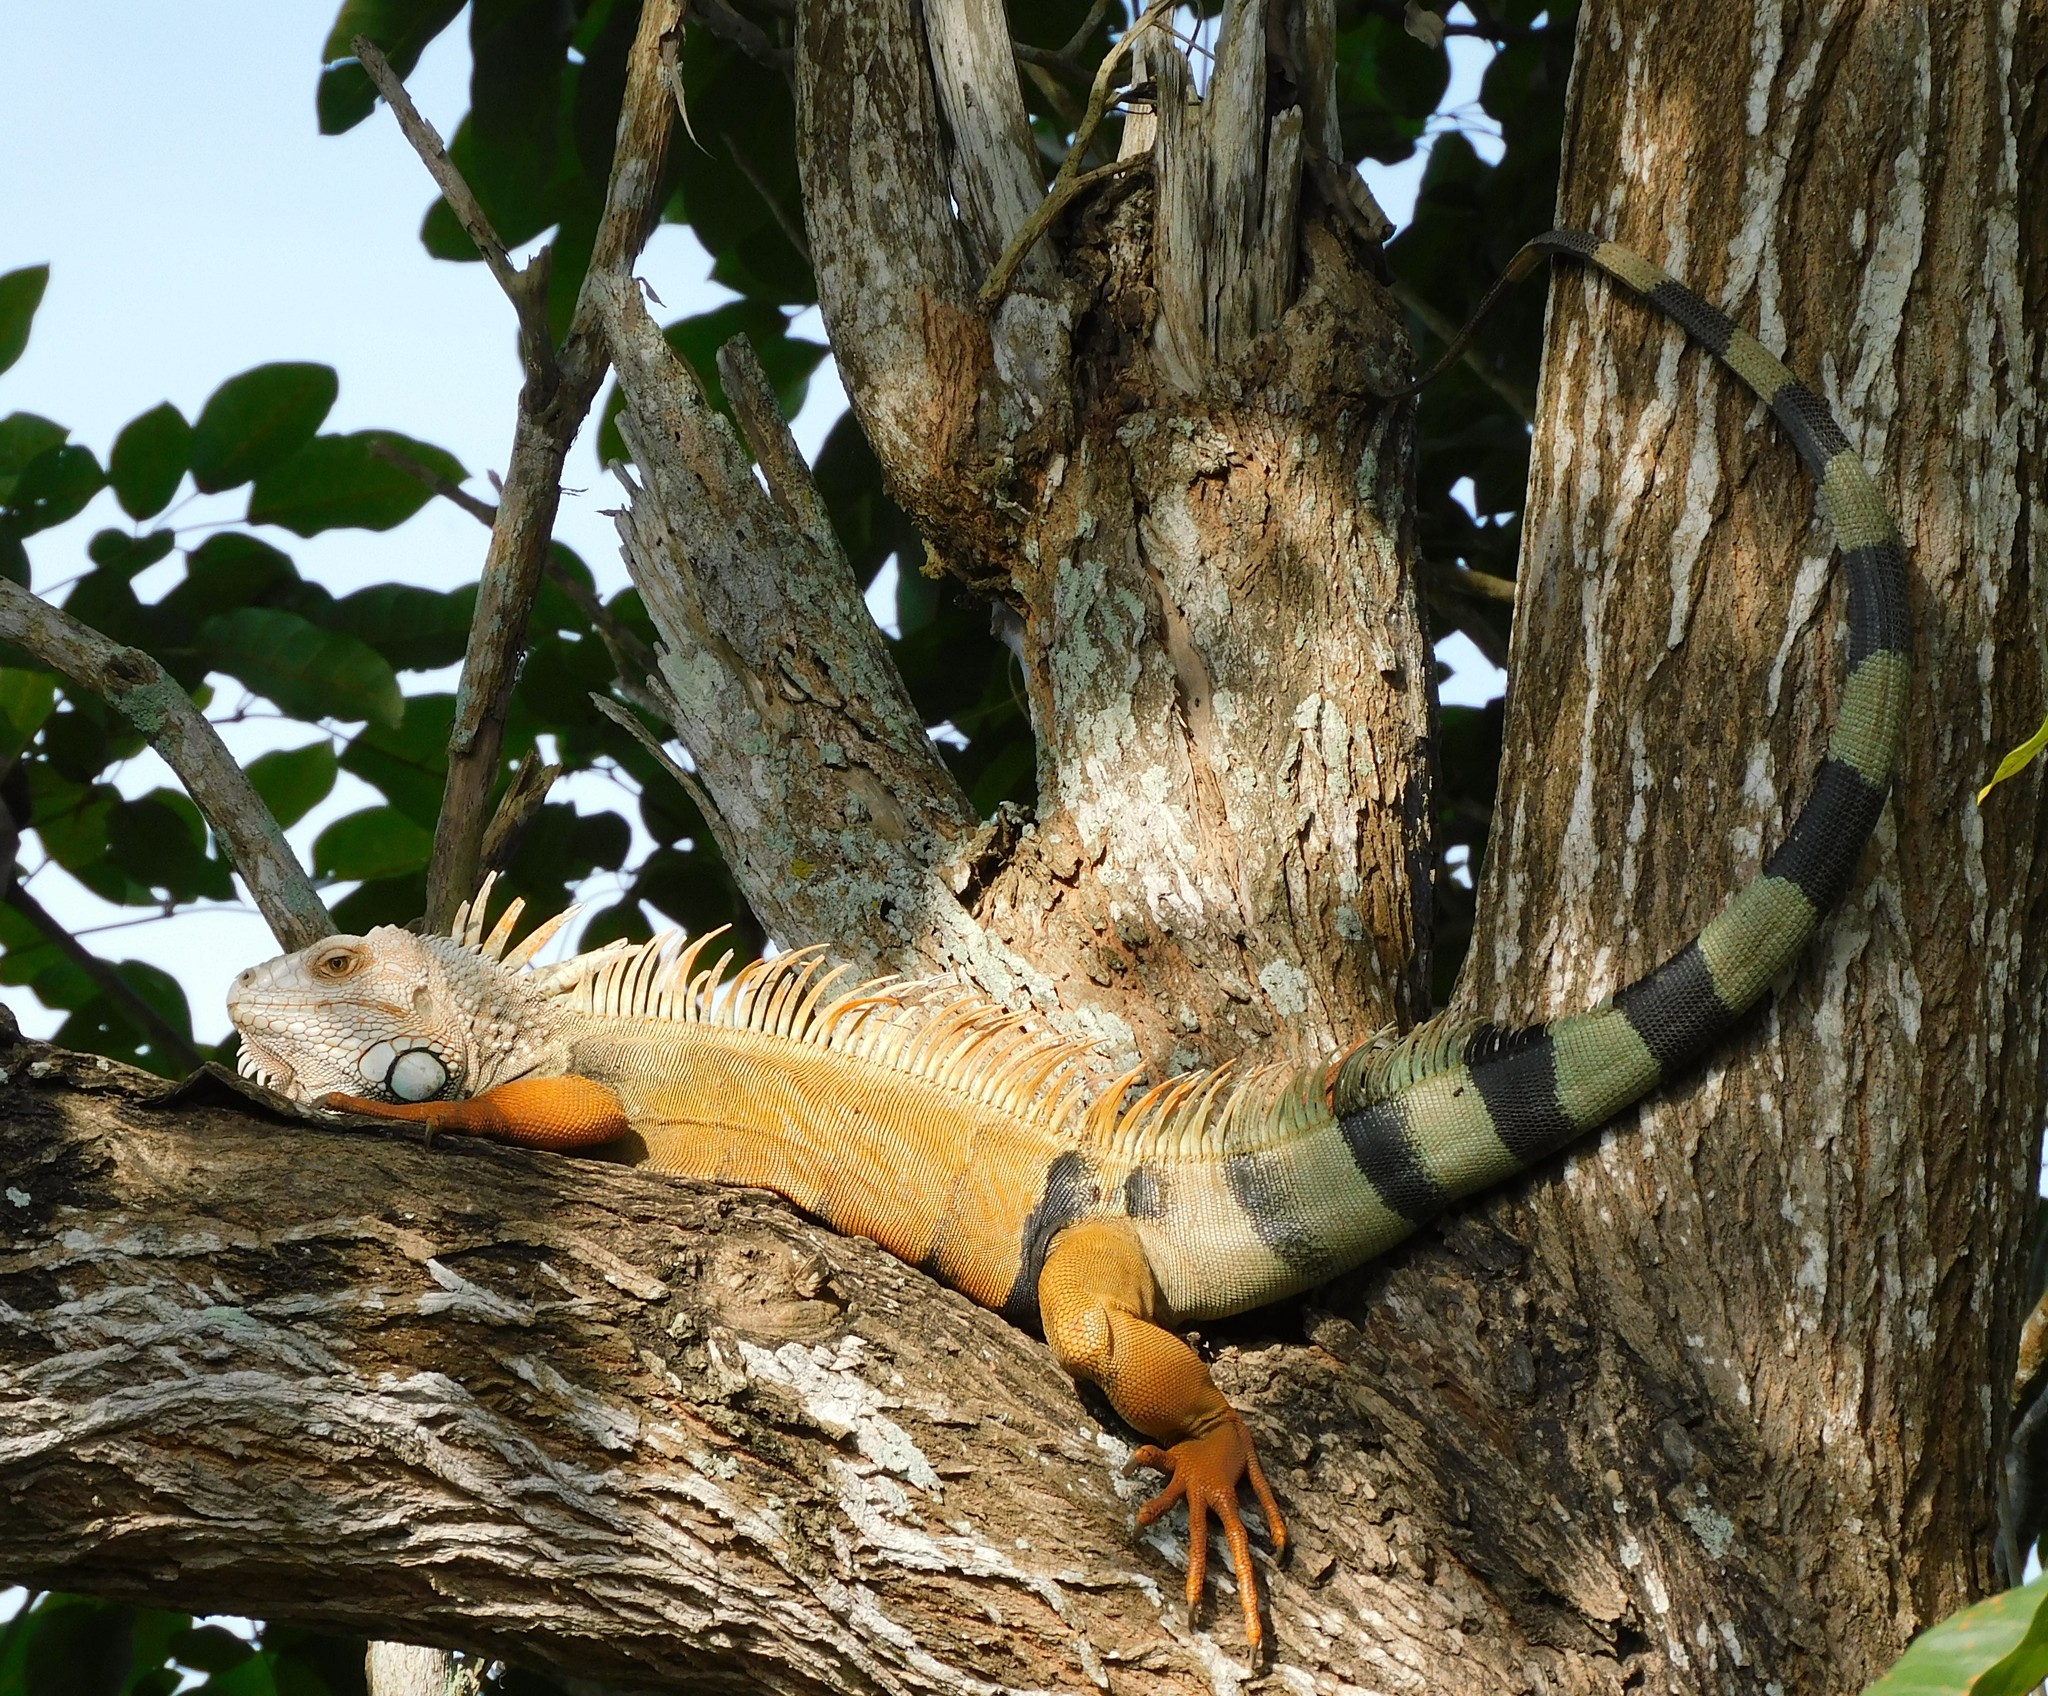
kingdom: Animalia
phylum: Chordata
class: Squamata
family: Iguanidae
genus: Iguana
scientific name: Iguana iguana
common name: Green iguana
